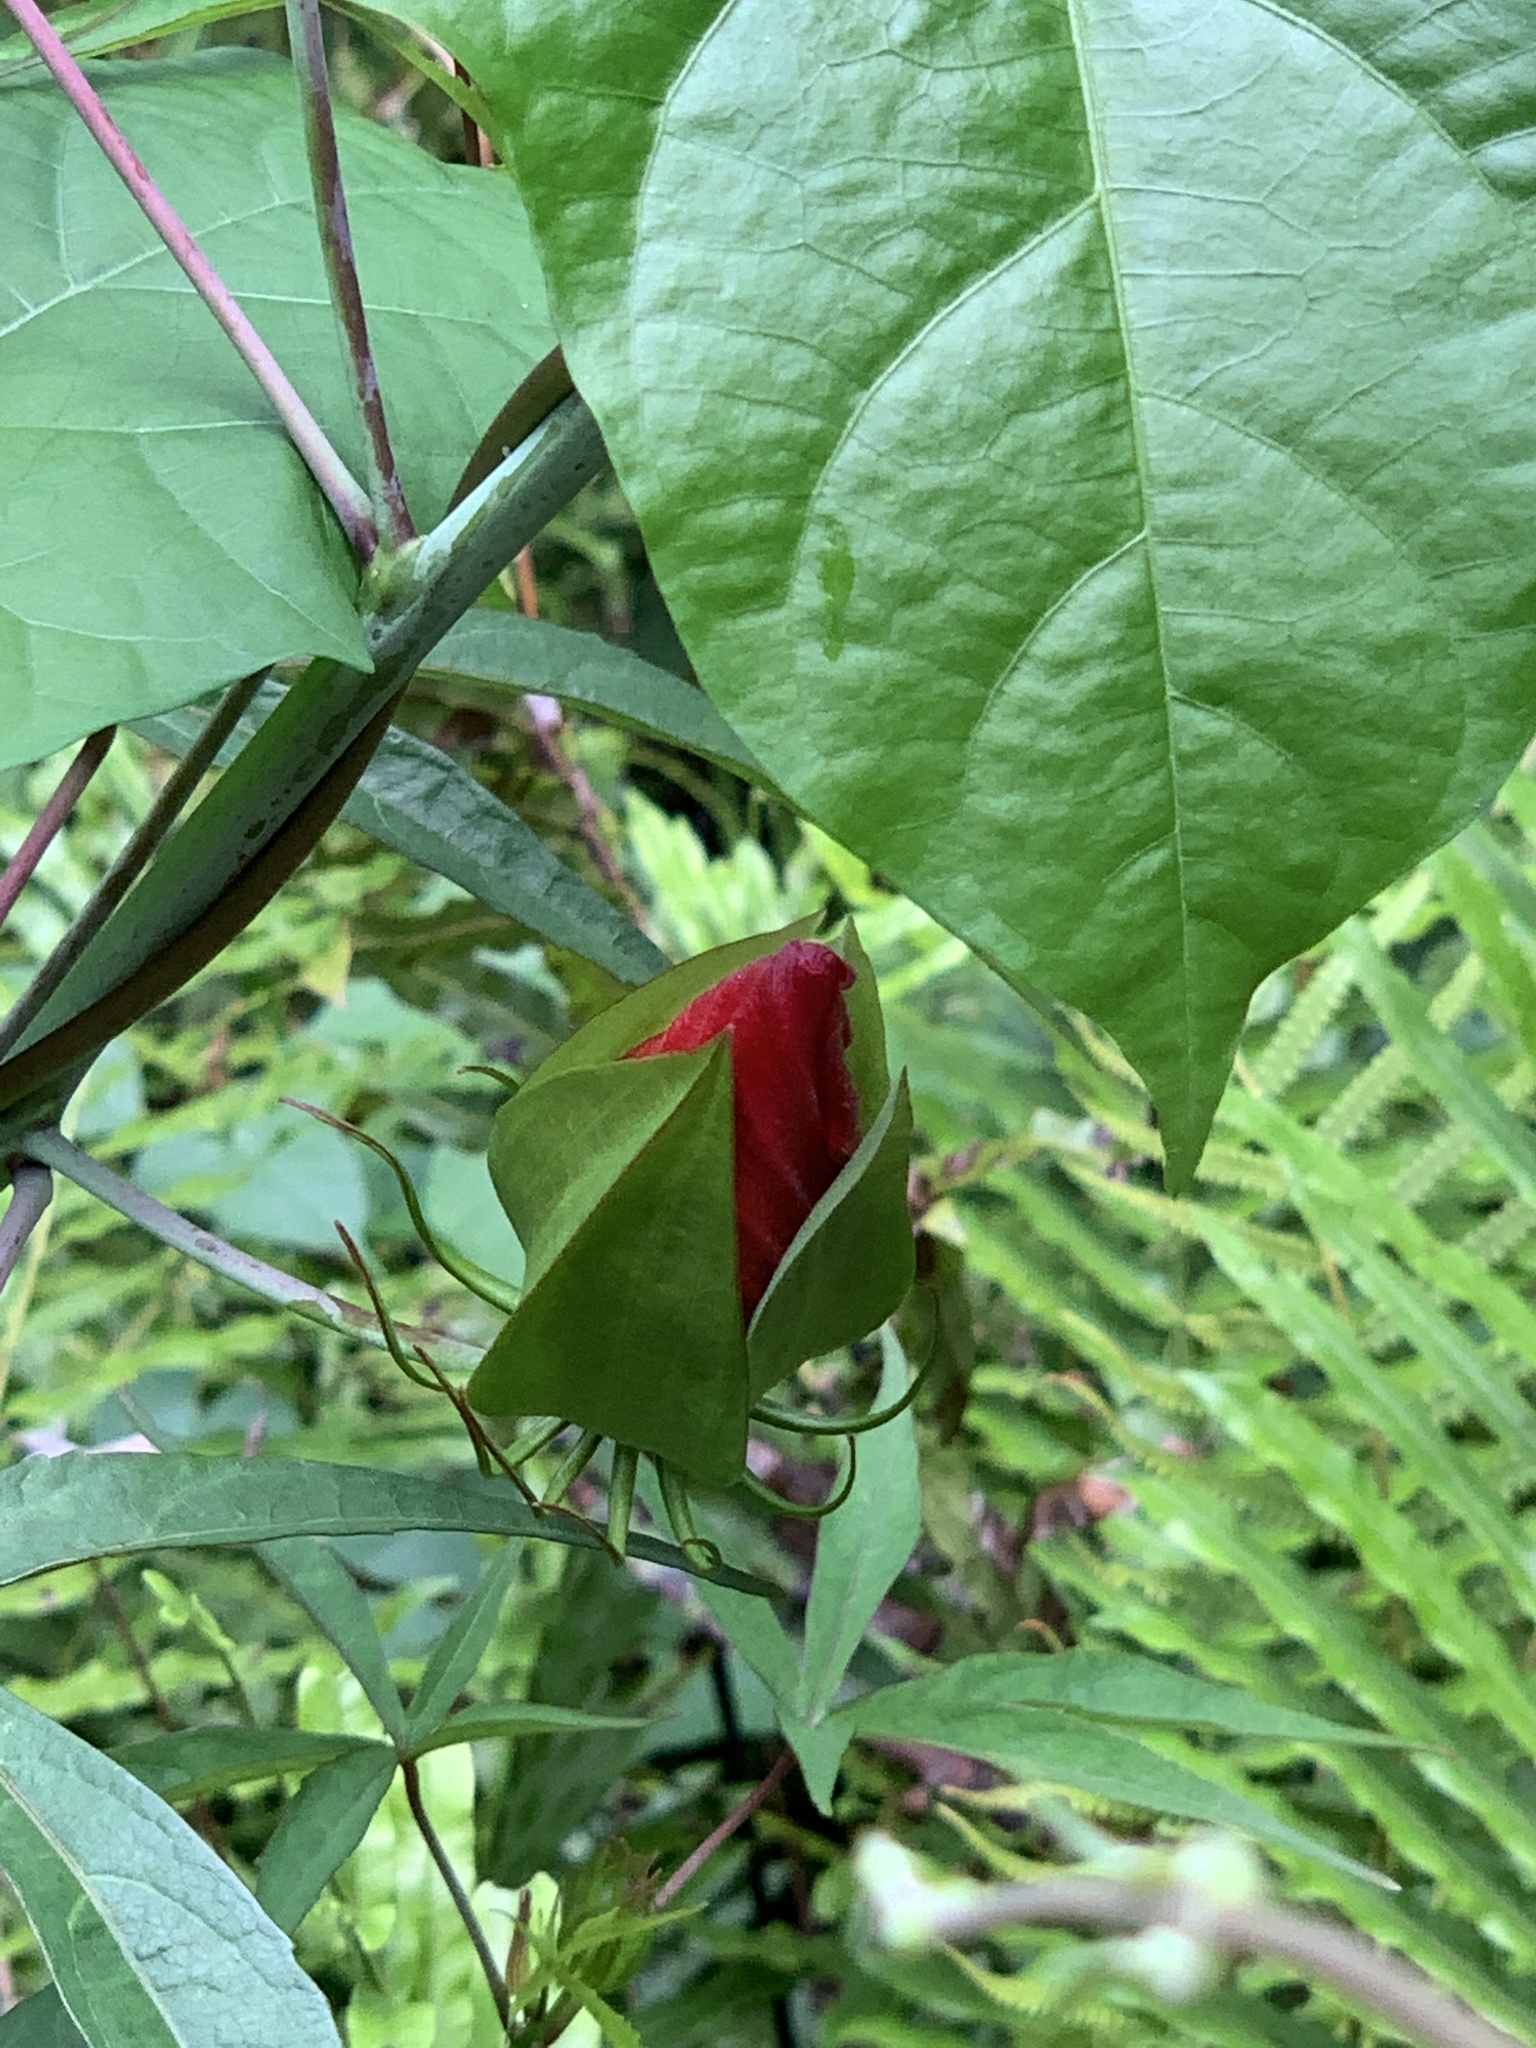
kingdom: Plantae
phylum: Tracheophyta
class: Magnoliopsida
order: Malvales
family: Malvaceae
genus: Hibiscus
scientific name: Hibiscus coccineus
